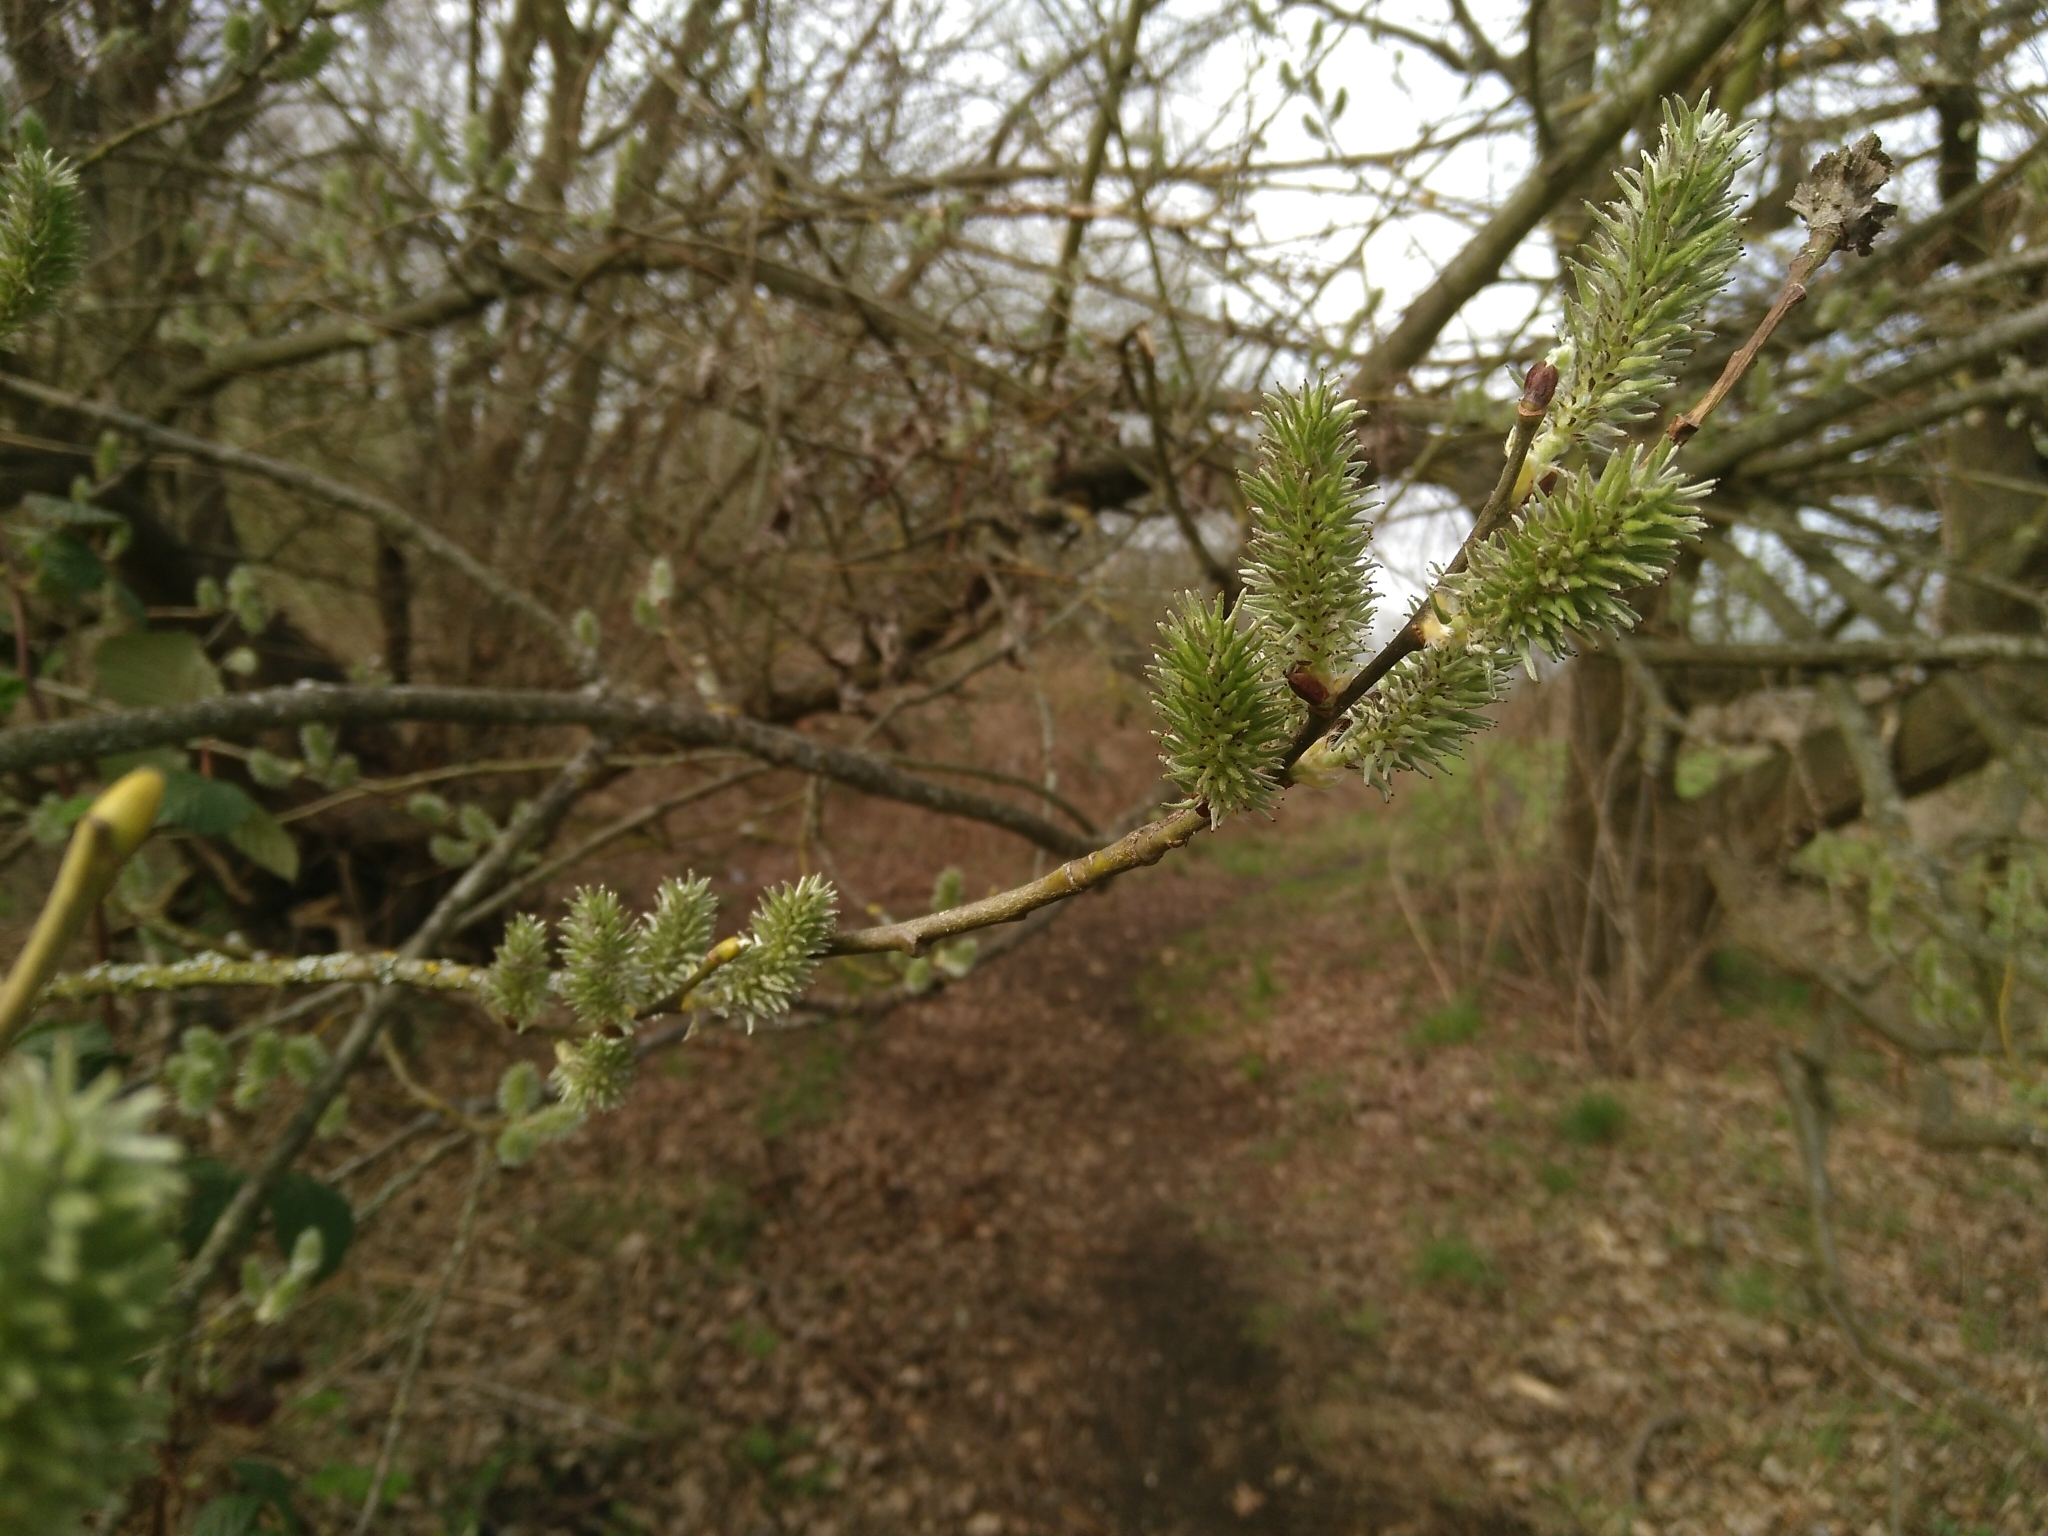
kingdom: Plantae
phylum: Tracheophyta
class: Magnoliopsida
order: Malpighiales
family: Salicaceae
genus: Salix
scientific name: Salix caprea
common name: Goat willow
